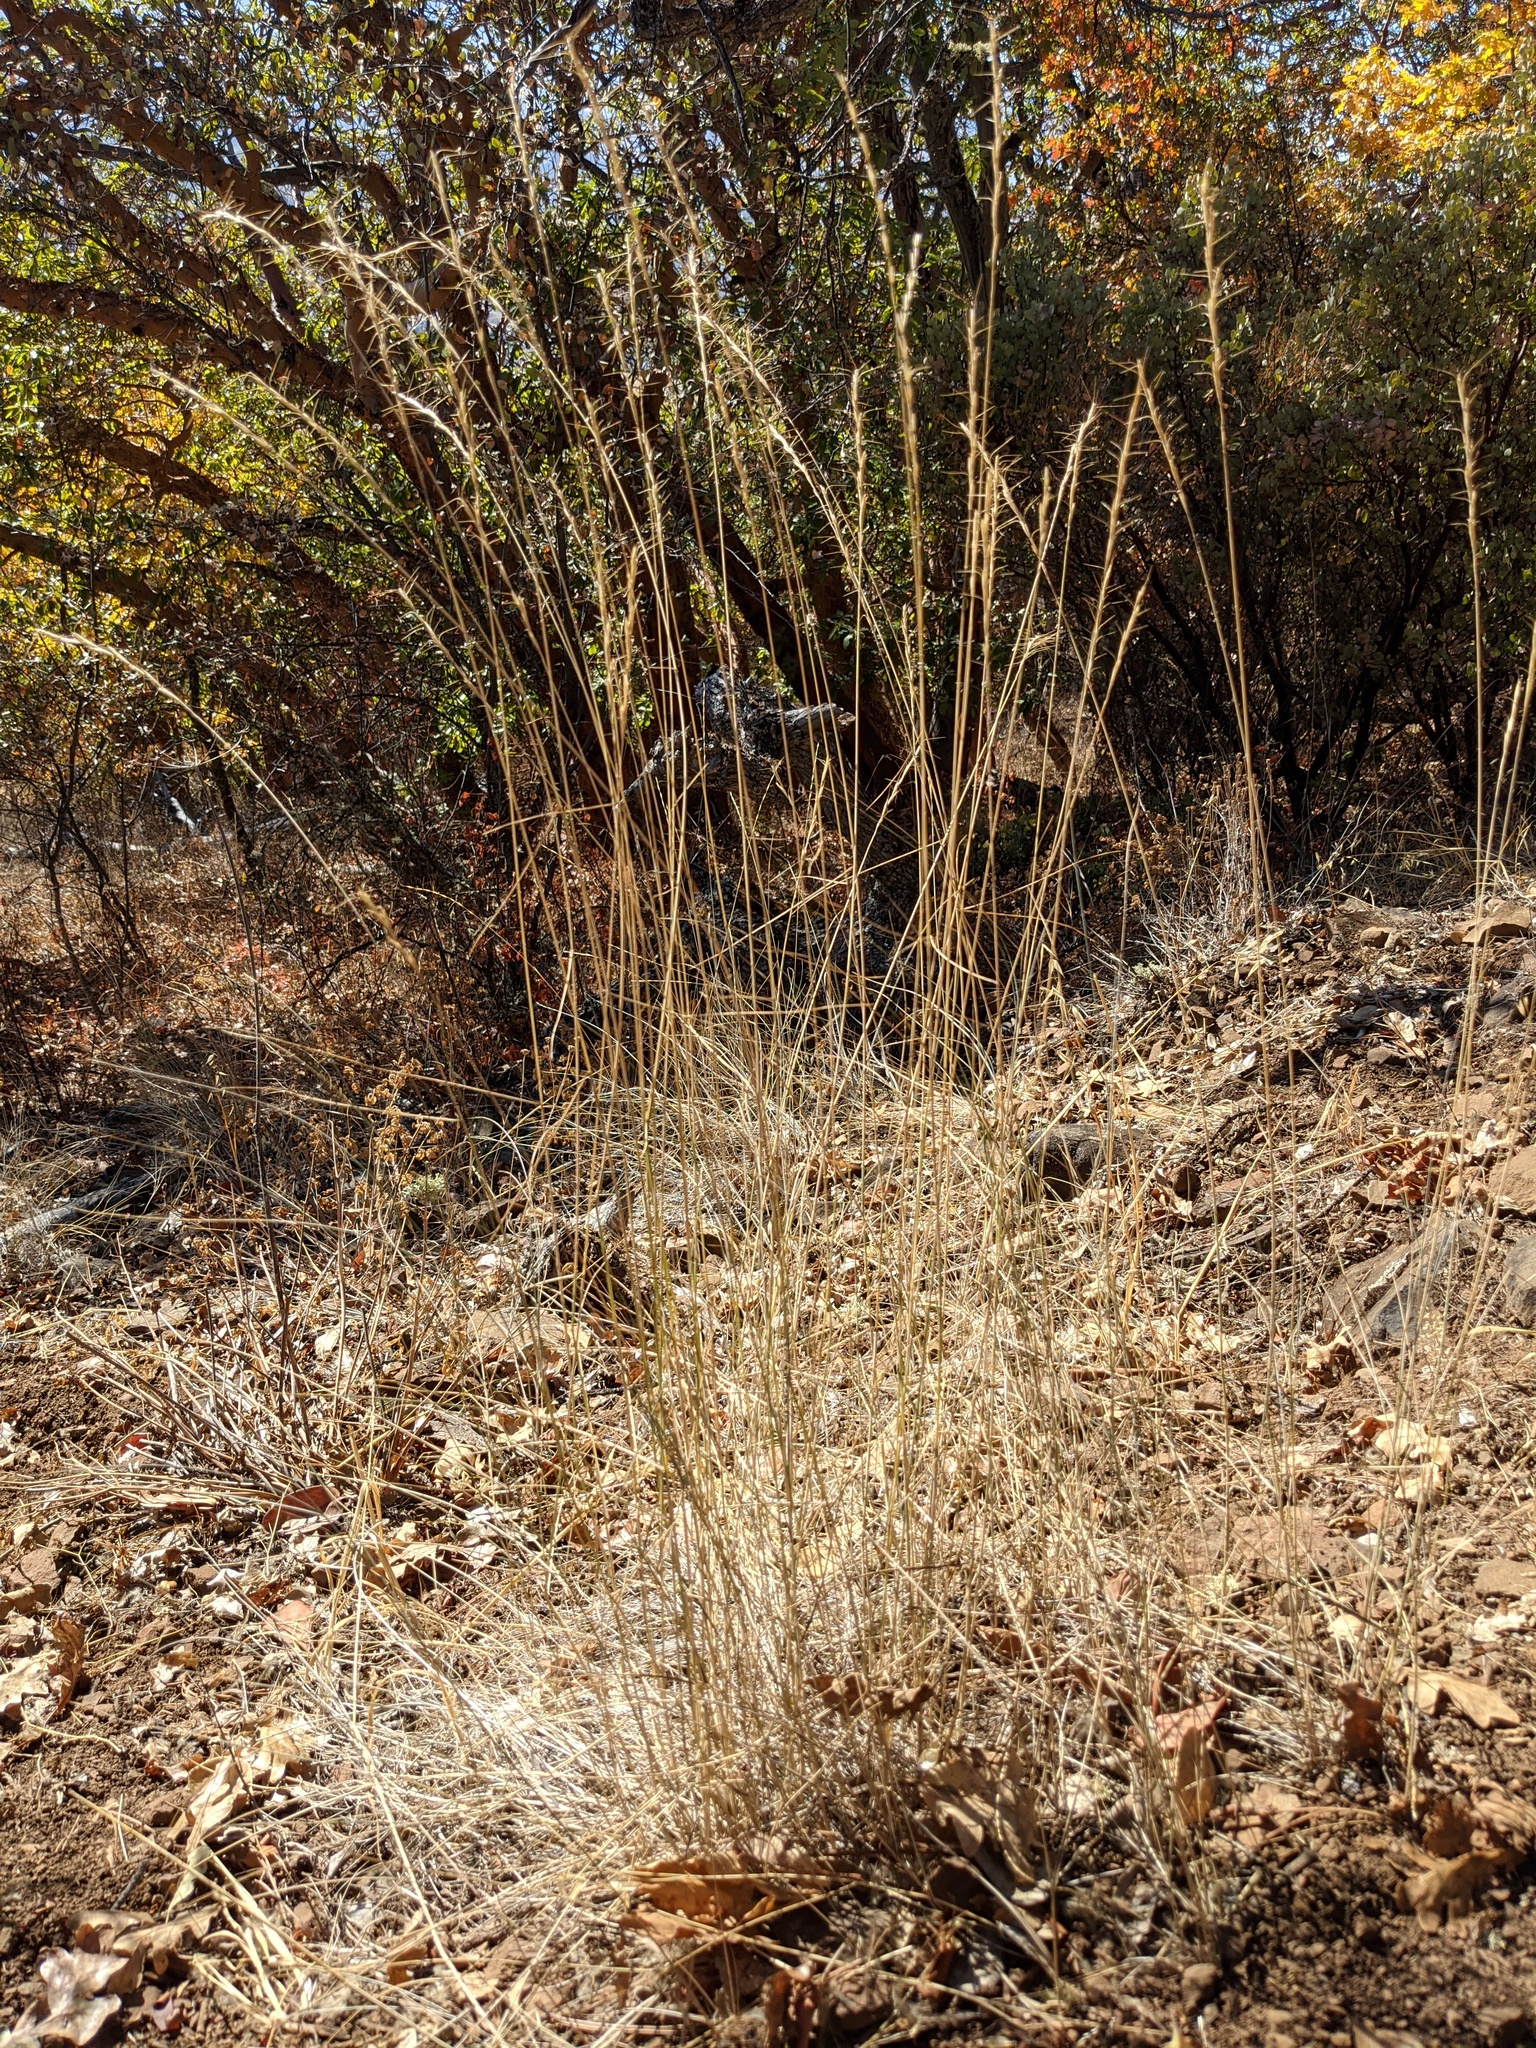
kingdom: Plantae
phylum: Tracheophyta
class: Liliopsida
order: Poales
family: Poaceae
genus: Pseudoroegneria
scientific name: Pseudoroegneria spicata
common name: Bluebunch wheatgrass
